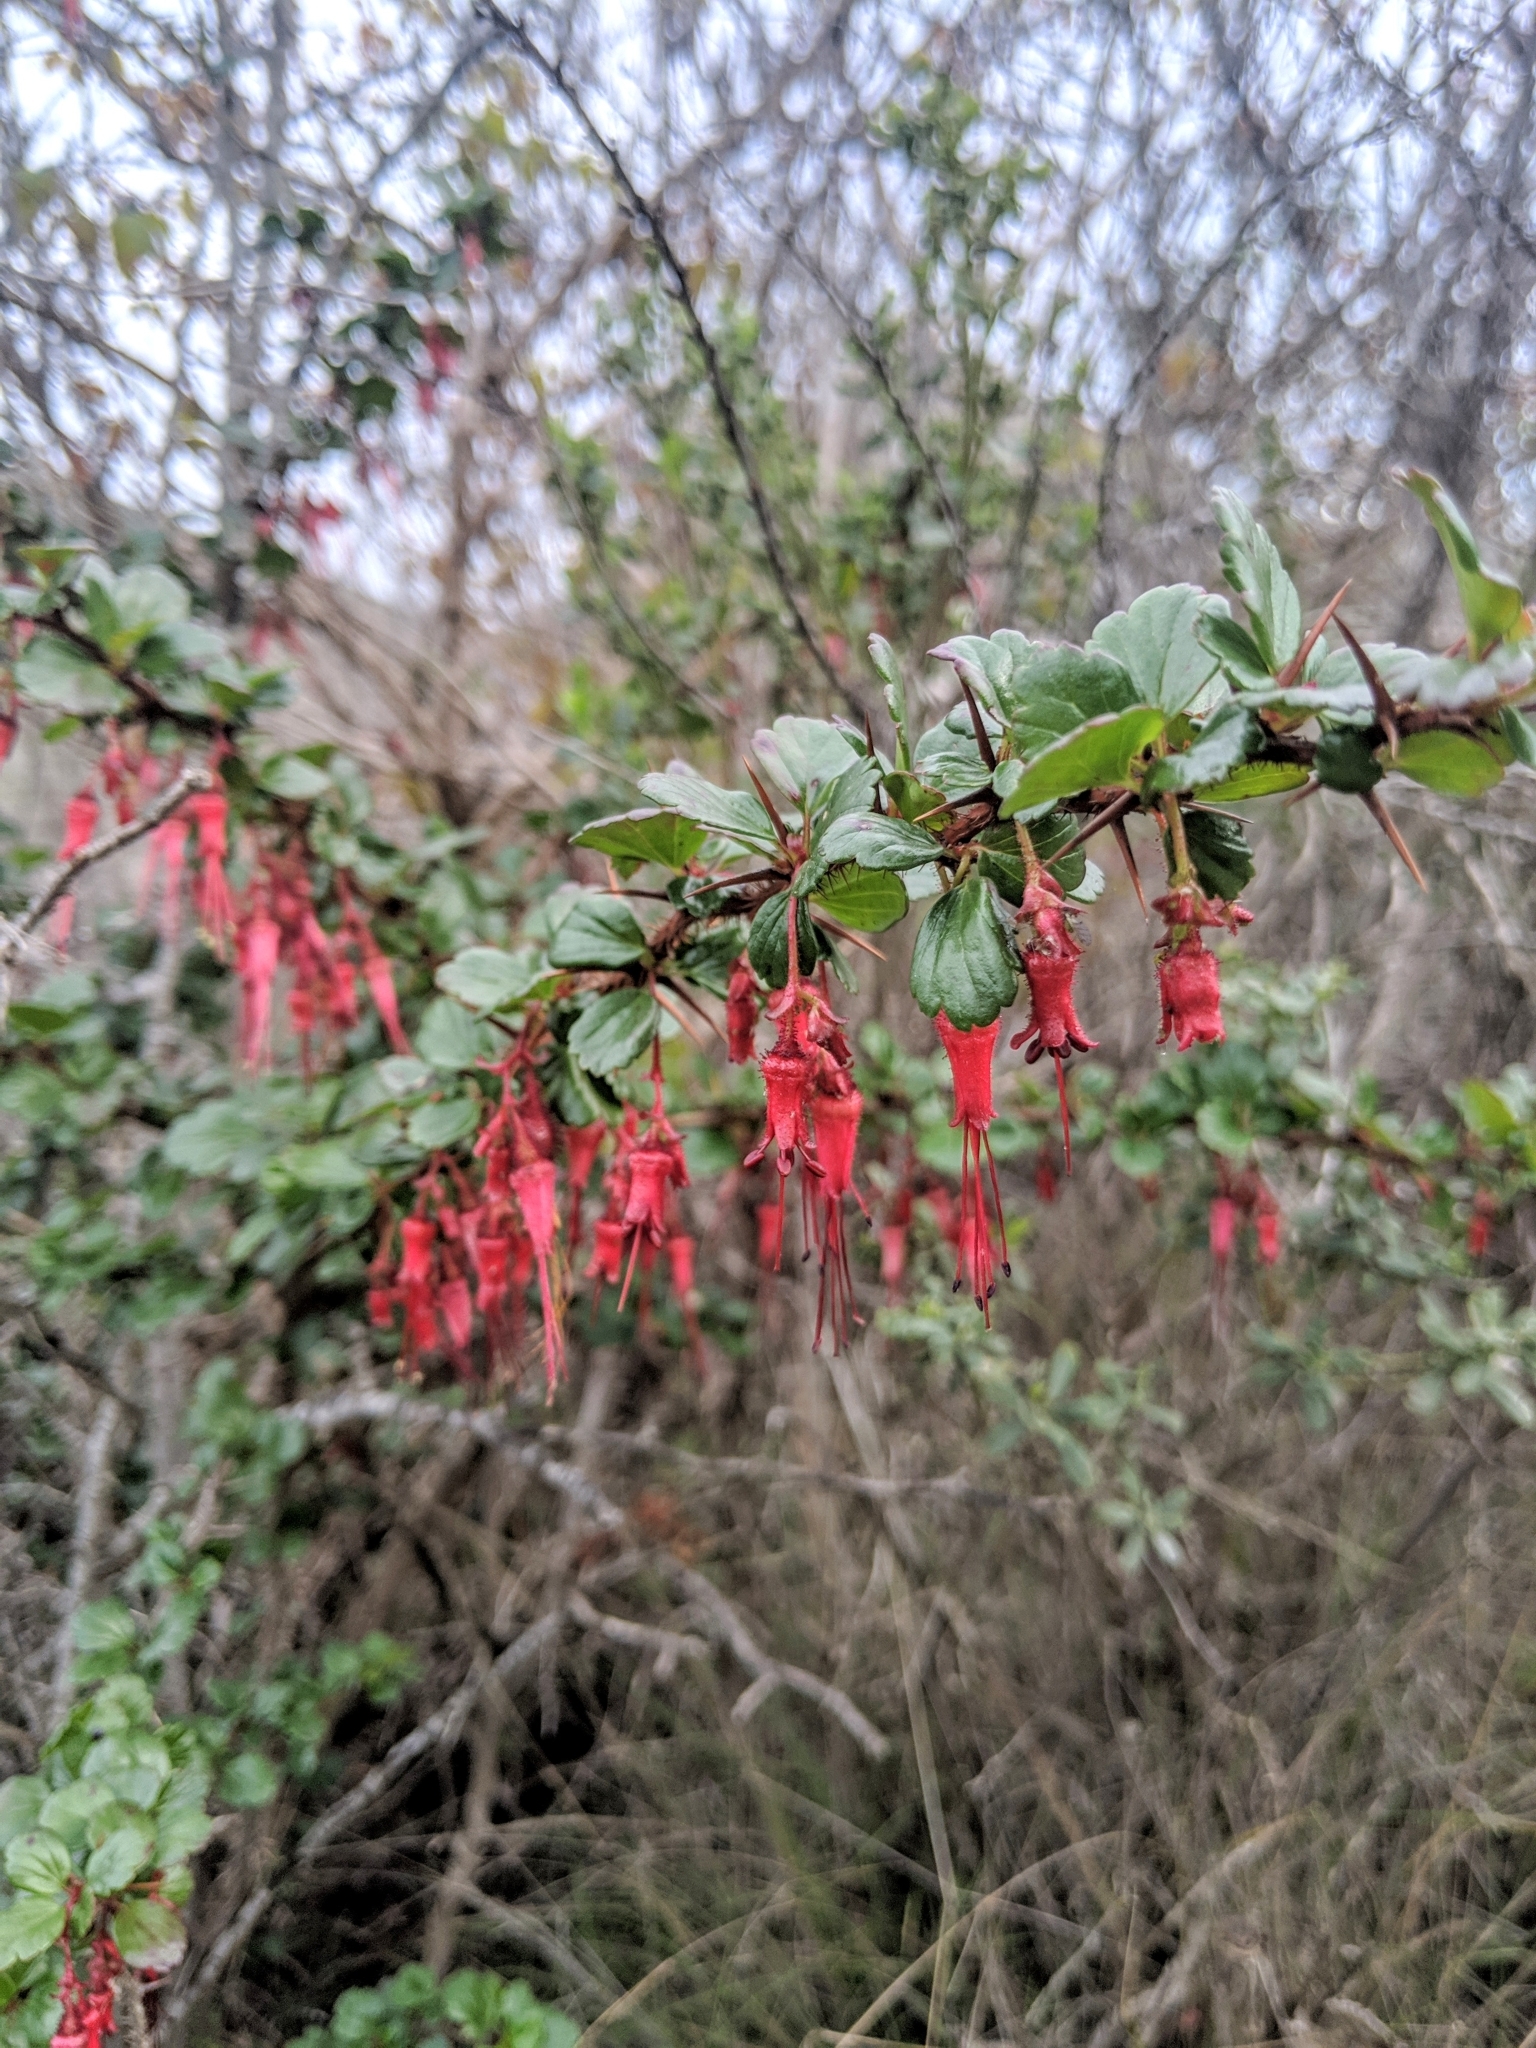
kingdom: Plantae
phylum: Tracheophyta
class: Magnoliopsida
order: Saxifragales
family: Grossulariaceae
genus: Ribes
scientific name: Ribes speciosum
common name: Fuchsia-flower gooseberry
